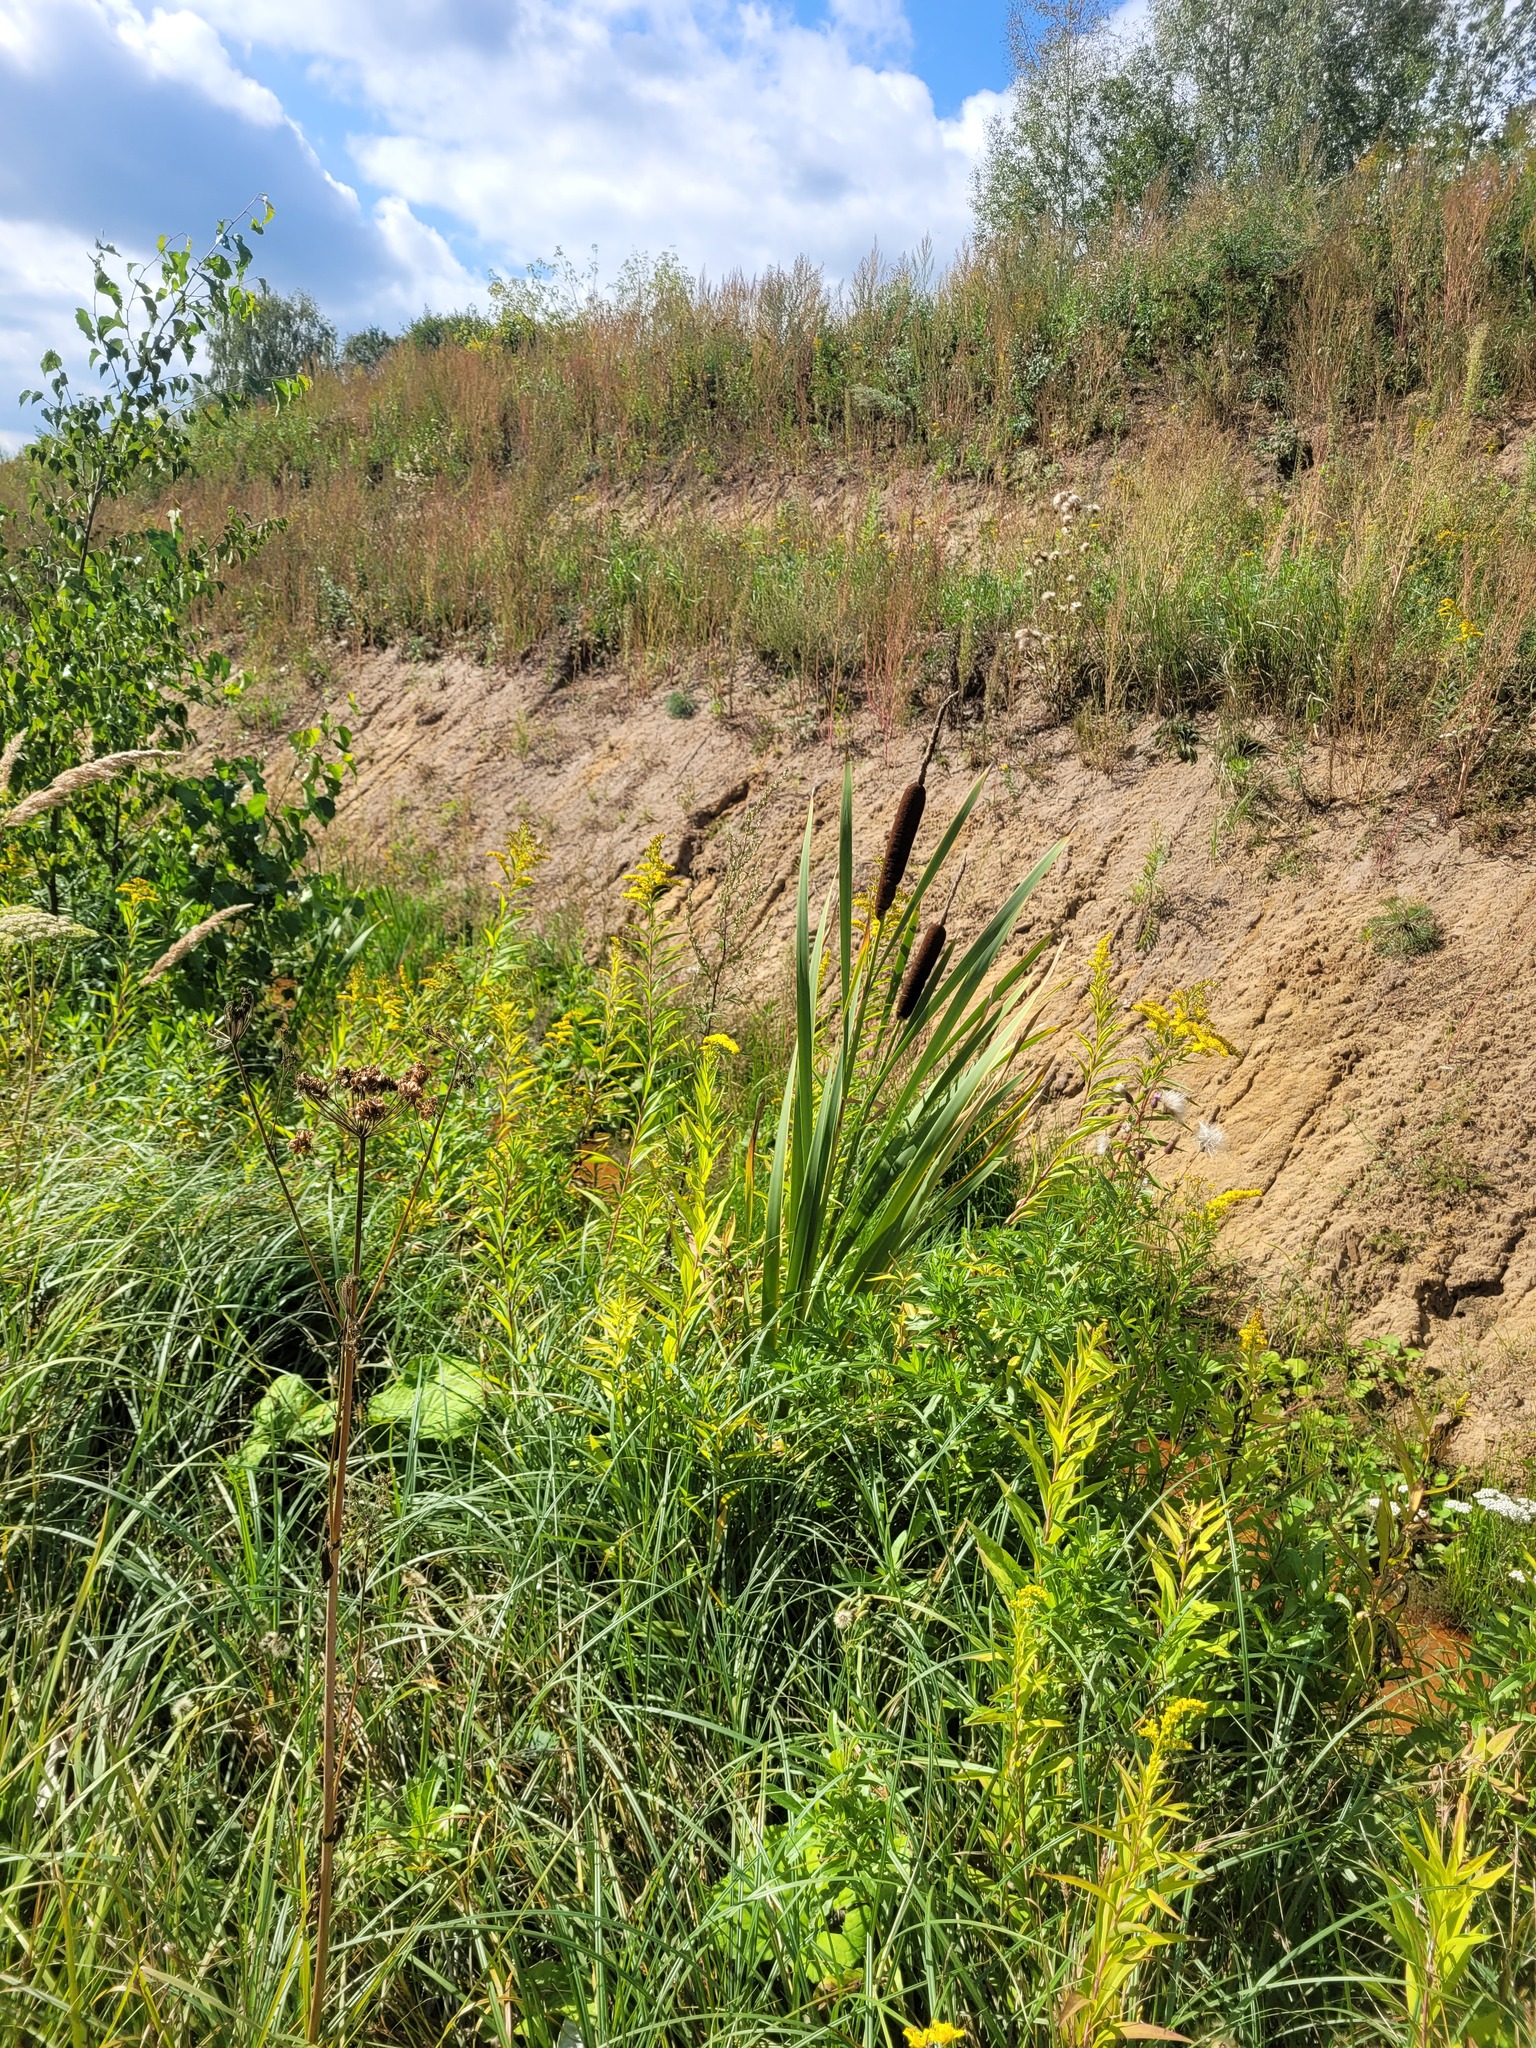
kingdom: Plantae
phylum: Tracheophyta
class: Liliopsida
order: Poales
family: Typhaceae
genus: Typha
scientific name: Typha latifolia
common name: Broadleaf cattail
